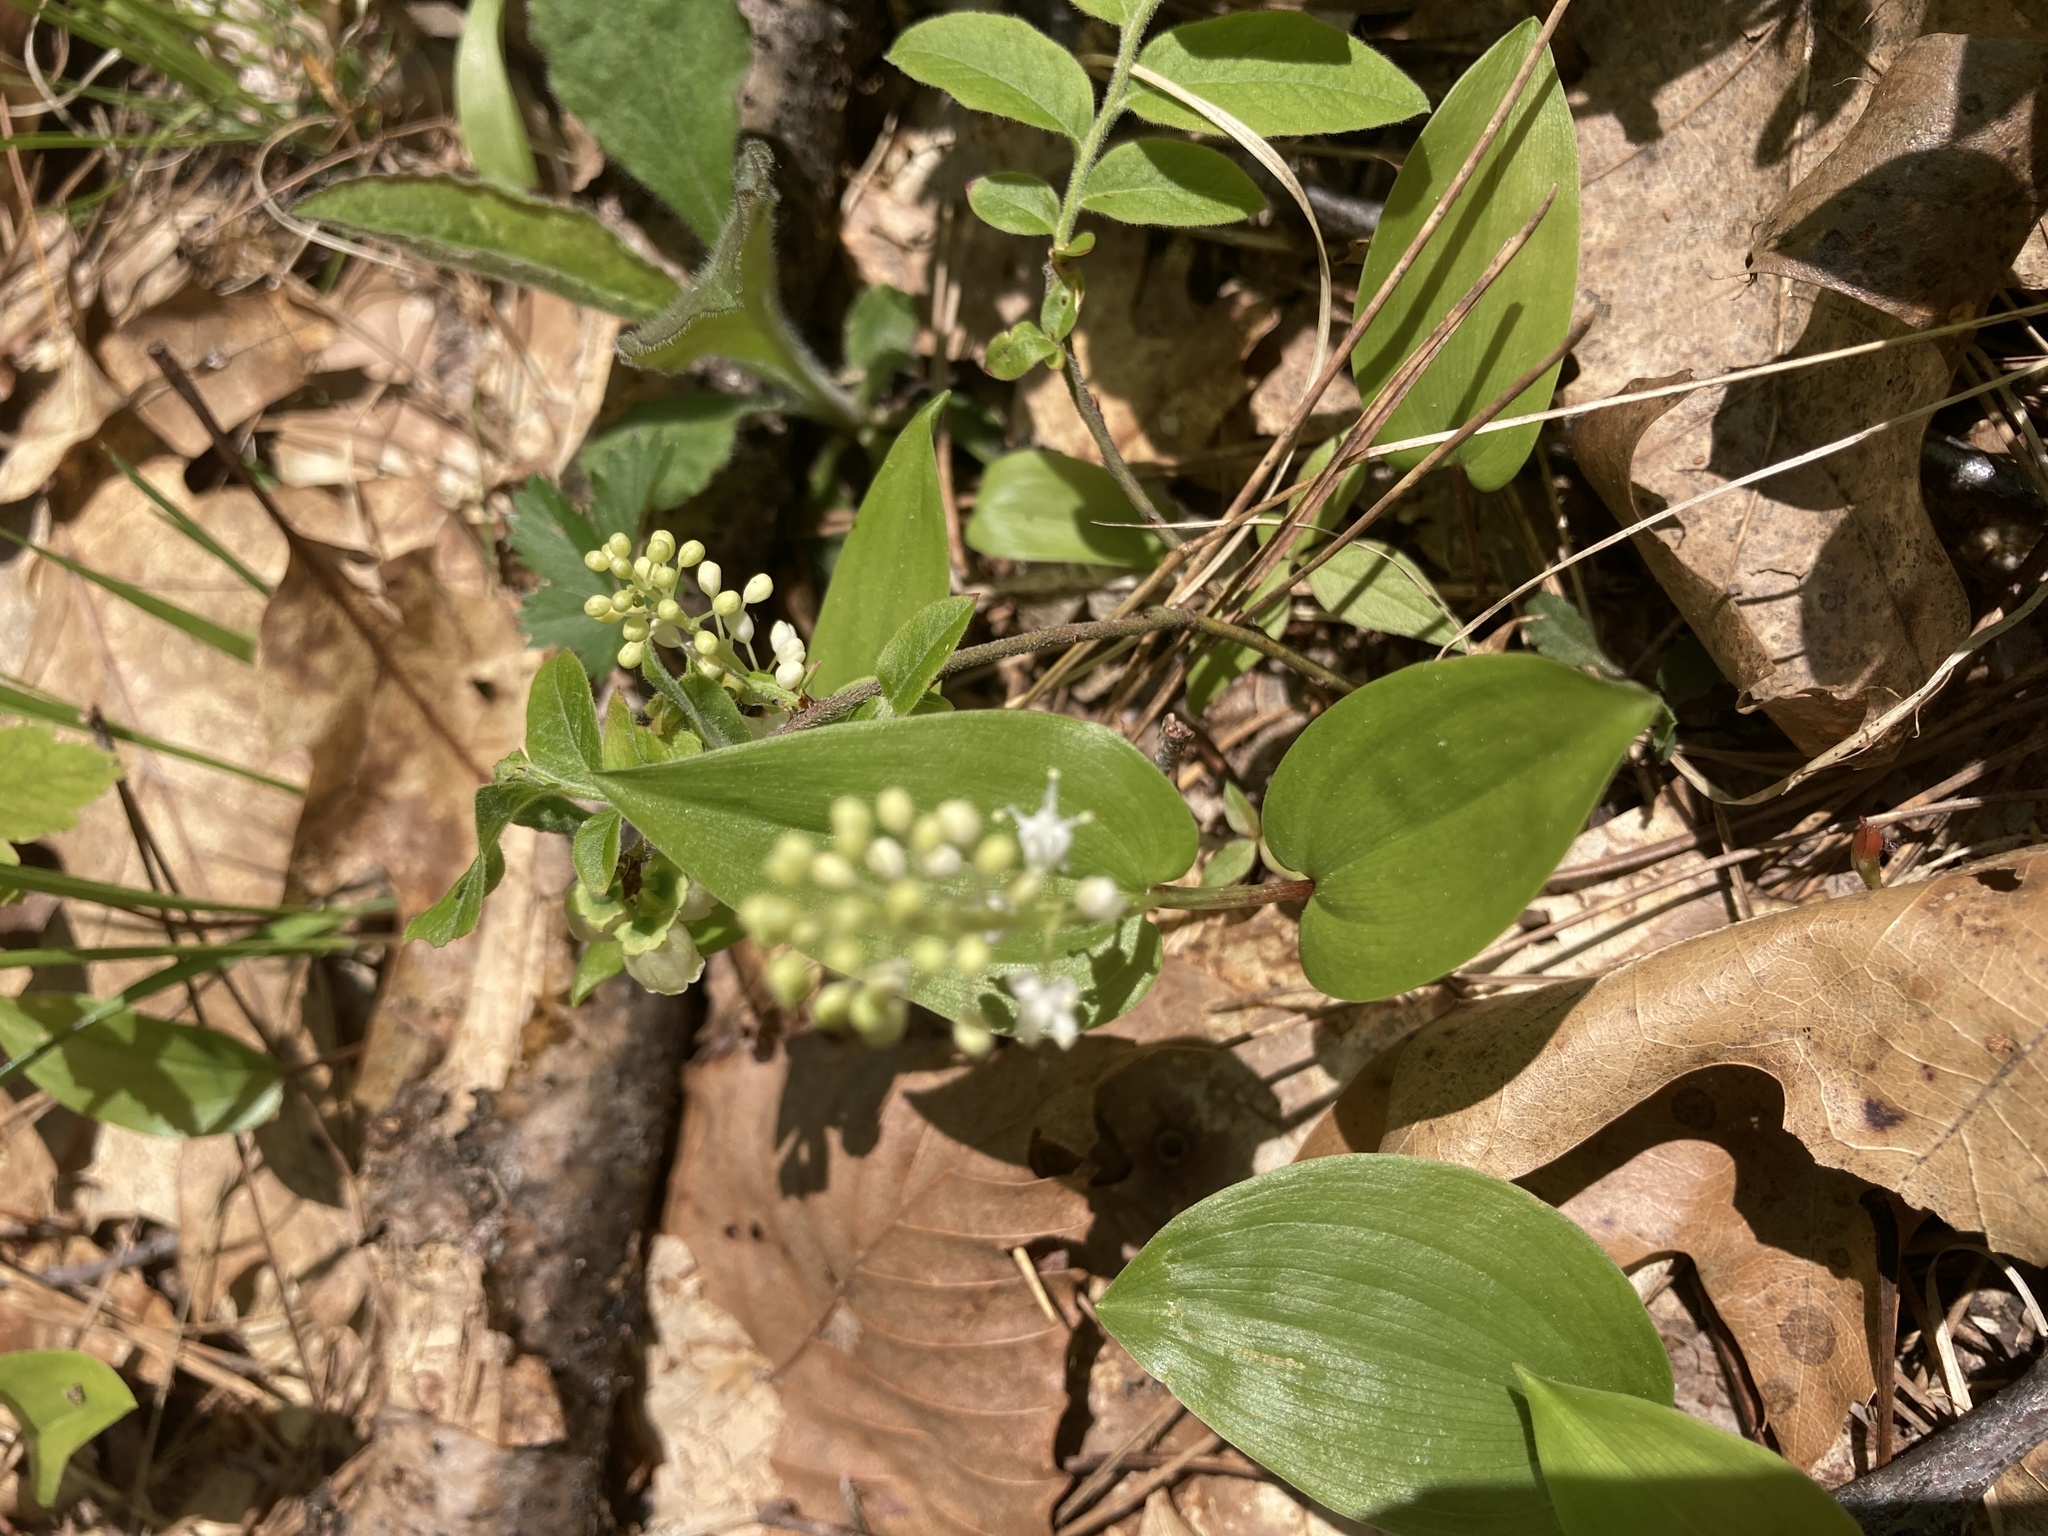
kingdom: Plantae
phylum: Tracheophyta
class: Liliopsida
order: Asparagales
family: Asparagaceae
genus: Maianthemum
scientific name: Maianthemum canadense
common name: False lily-of-the-valley
